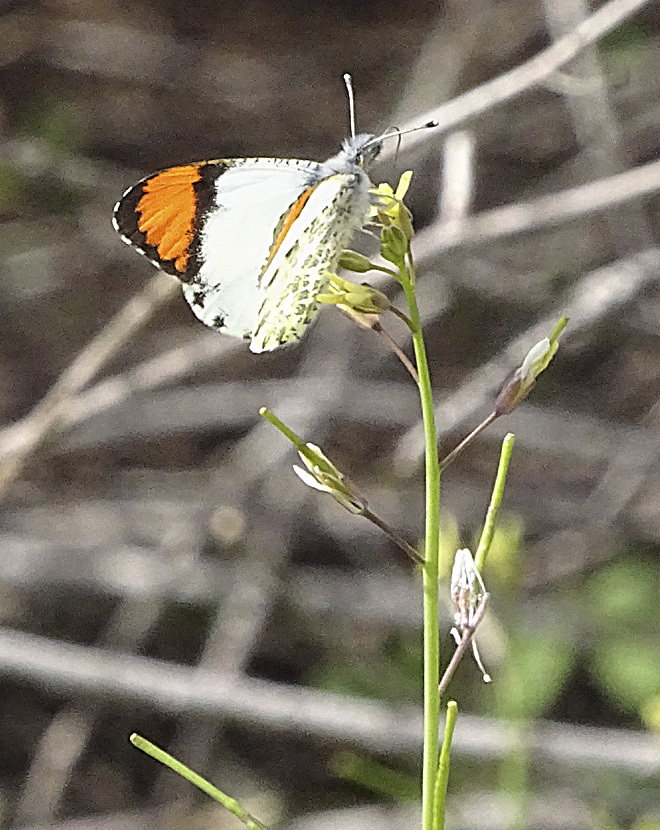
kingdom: Animalia
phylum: Arthropoda
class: Insecta
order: Lepidoptera
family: Pieridae
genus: Anthocharis
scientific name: Anthocharis sara
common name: Sara's orangetip
